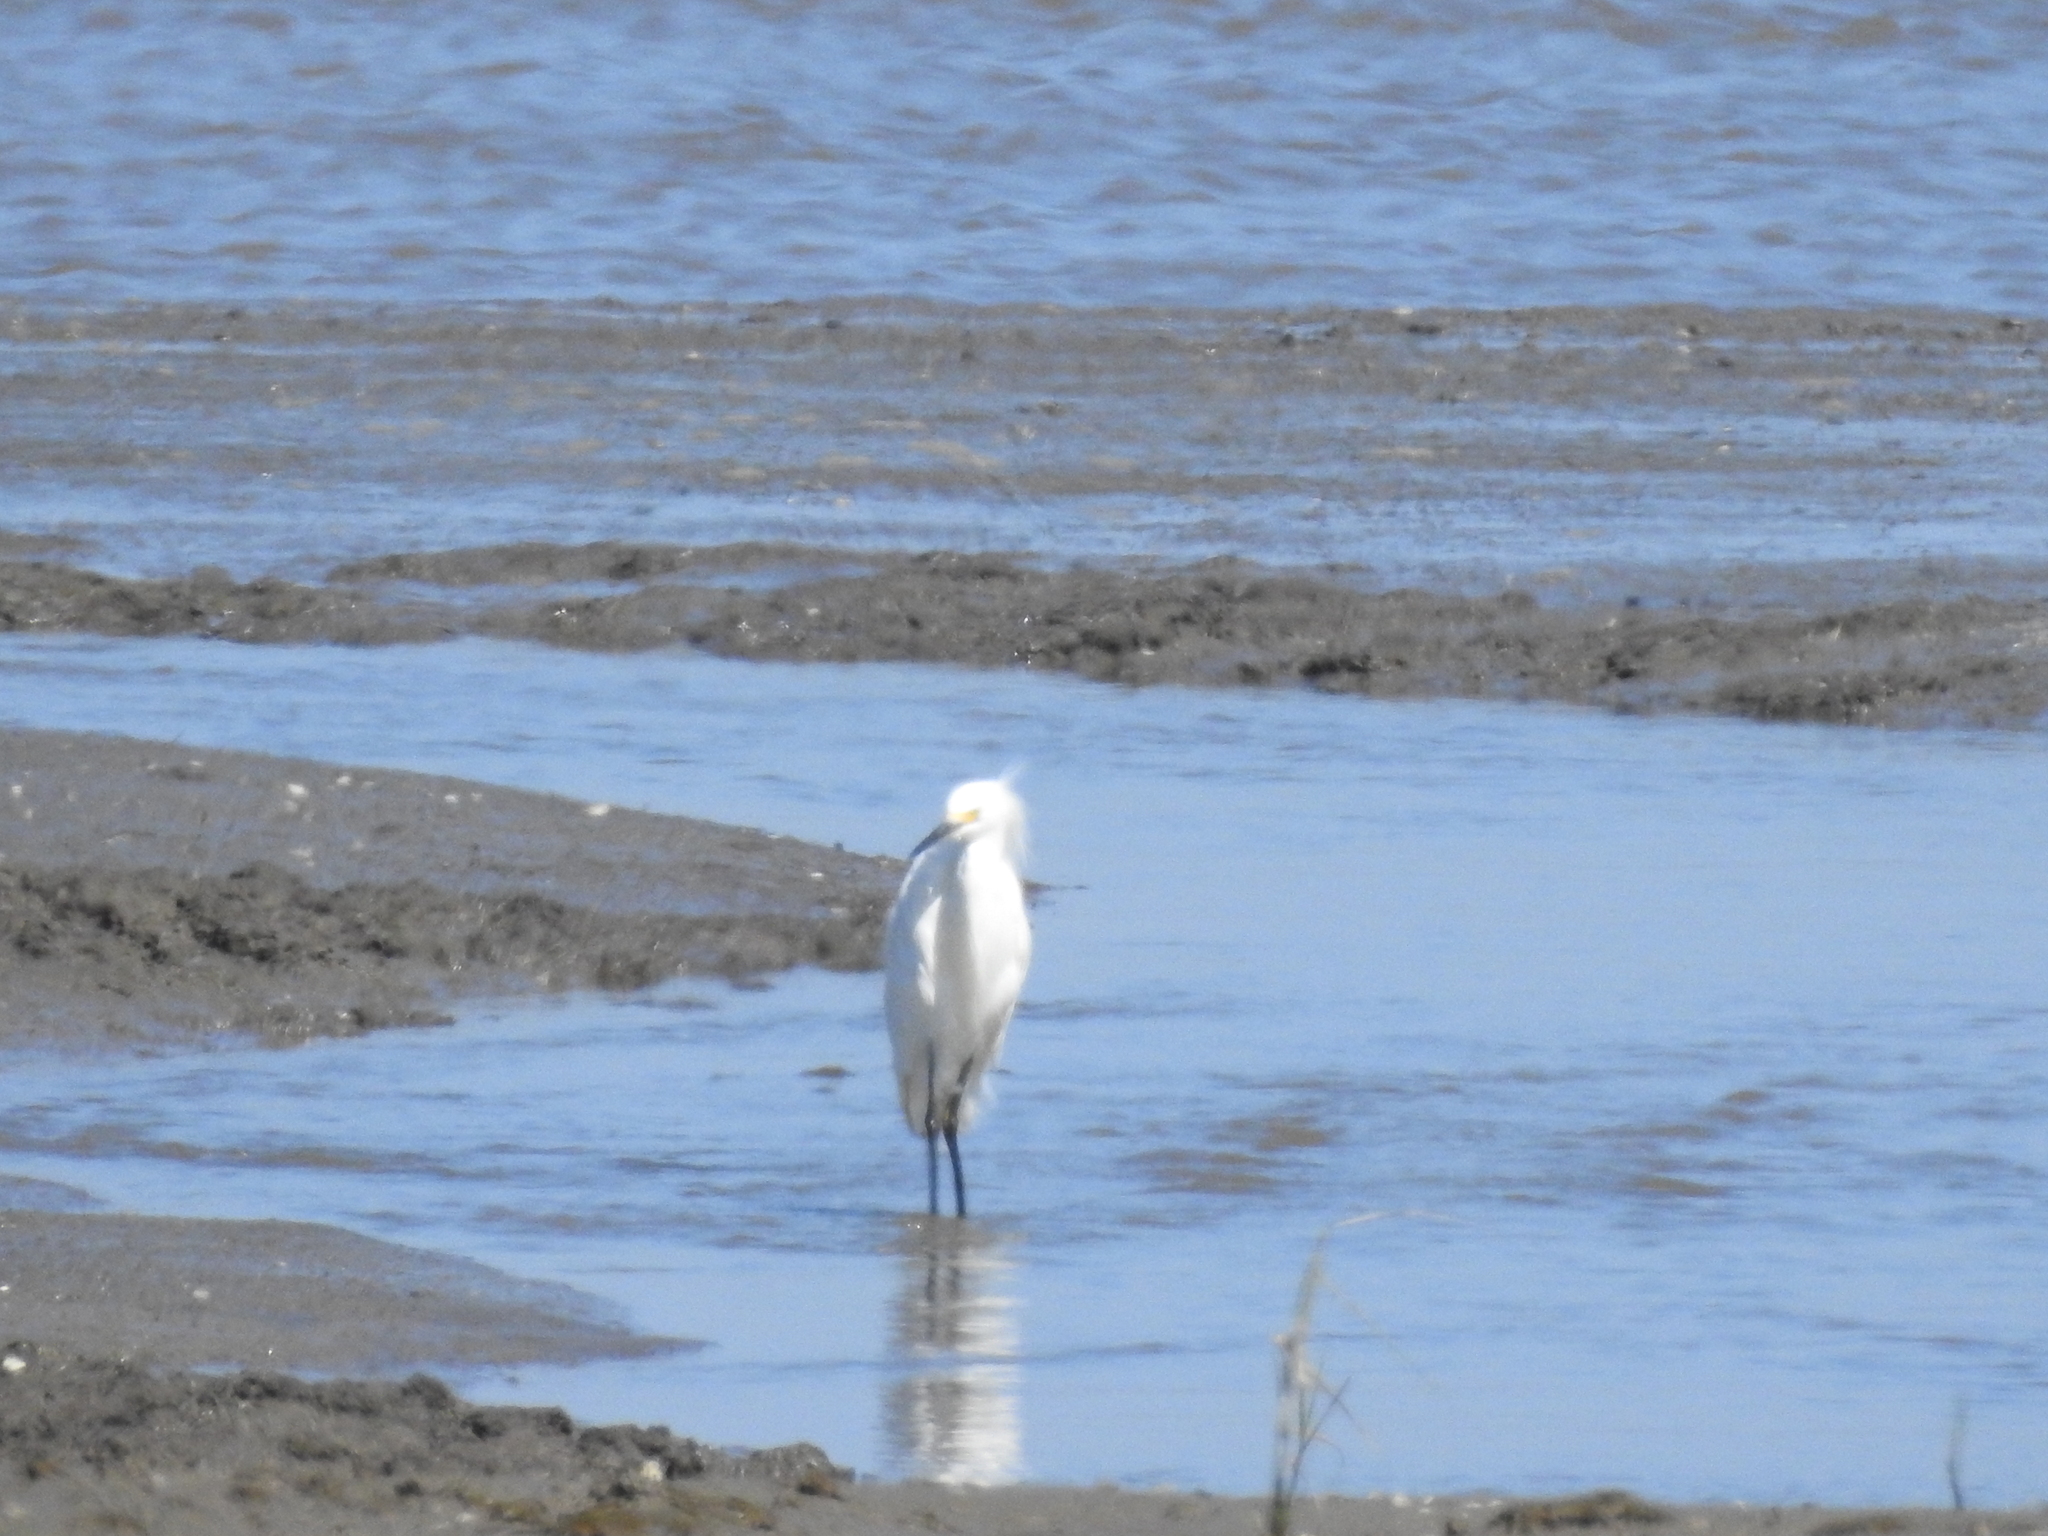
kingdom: Animalia
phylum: Chordata
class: Aves
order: Pelecaniformes
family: Ardeidae
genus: Egretta
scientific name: Egretta thula
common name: Snowy egret
